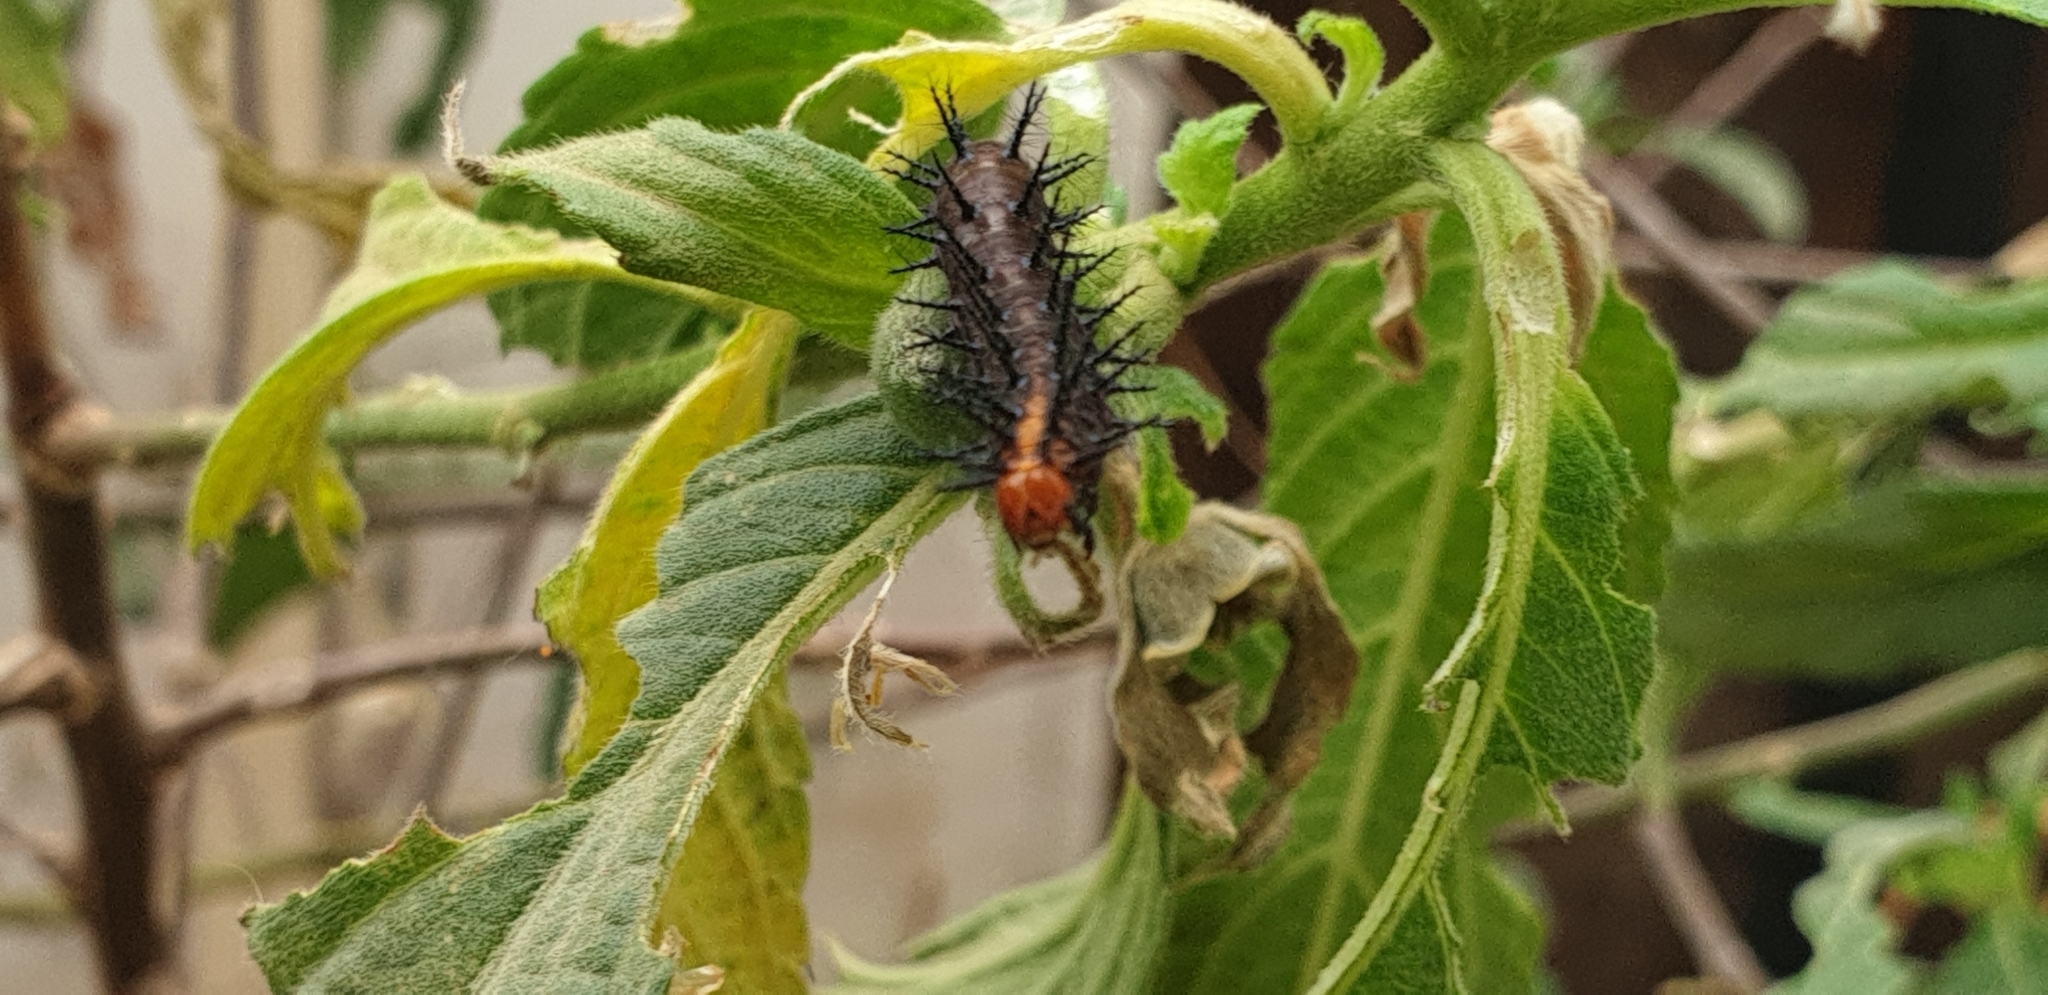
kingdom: Animalia
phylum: Arthropoda
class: Insecta
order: Lepidoptera
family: Nymphalidae
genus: Acraea
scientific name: Acraea terpsicore
